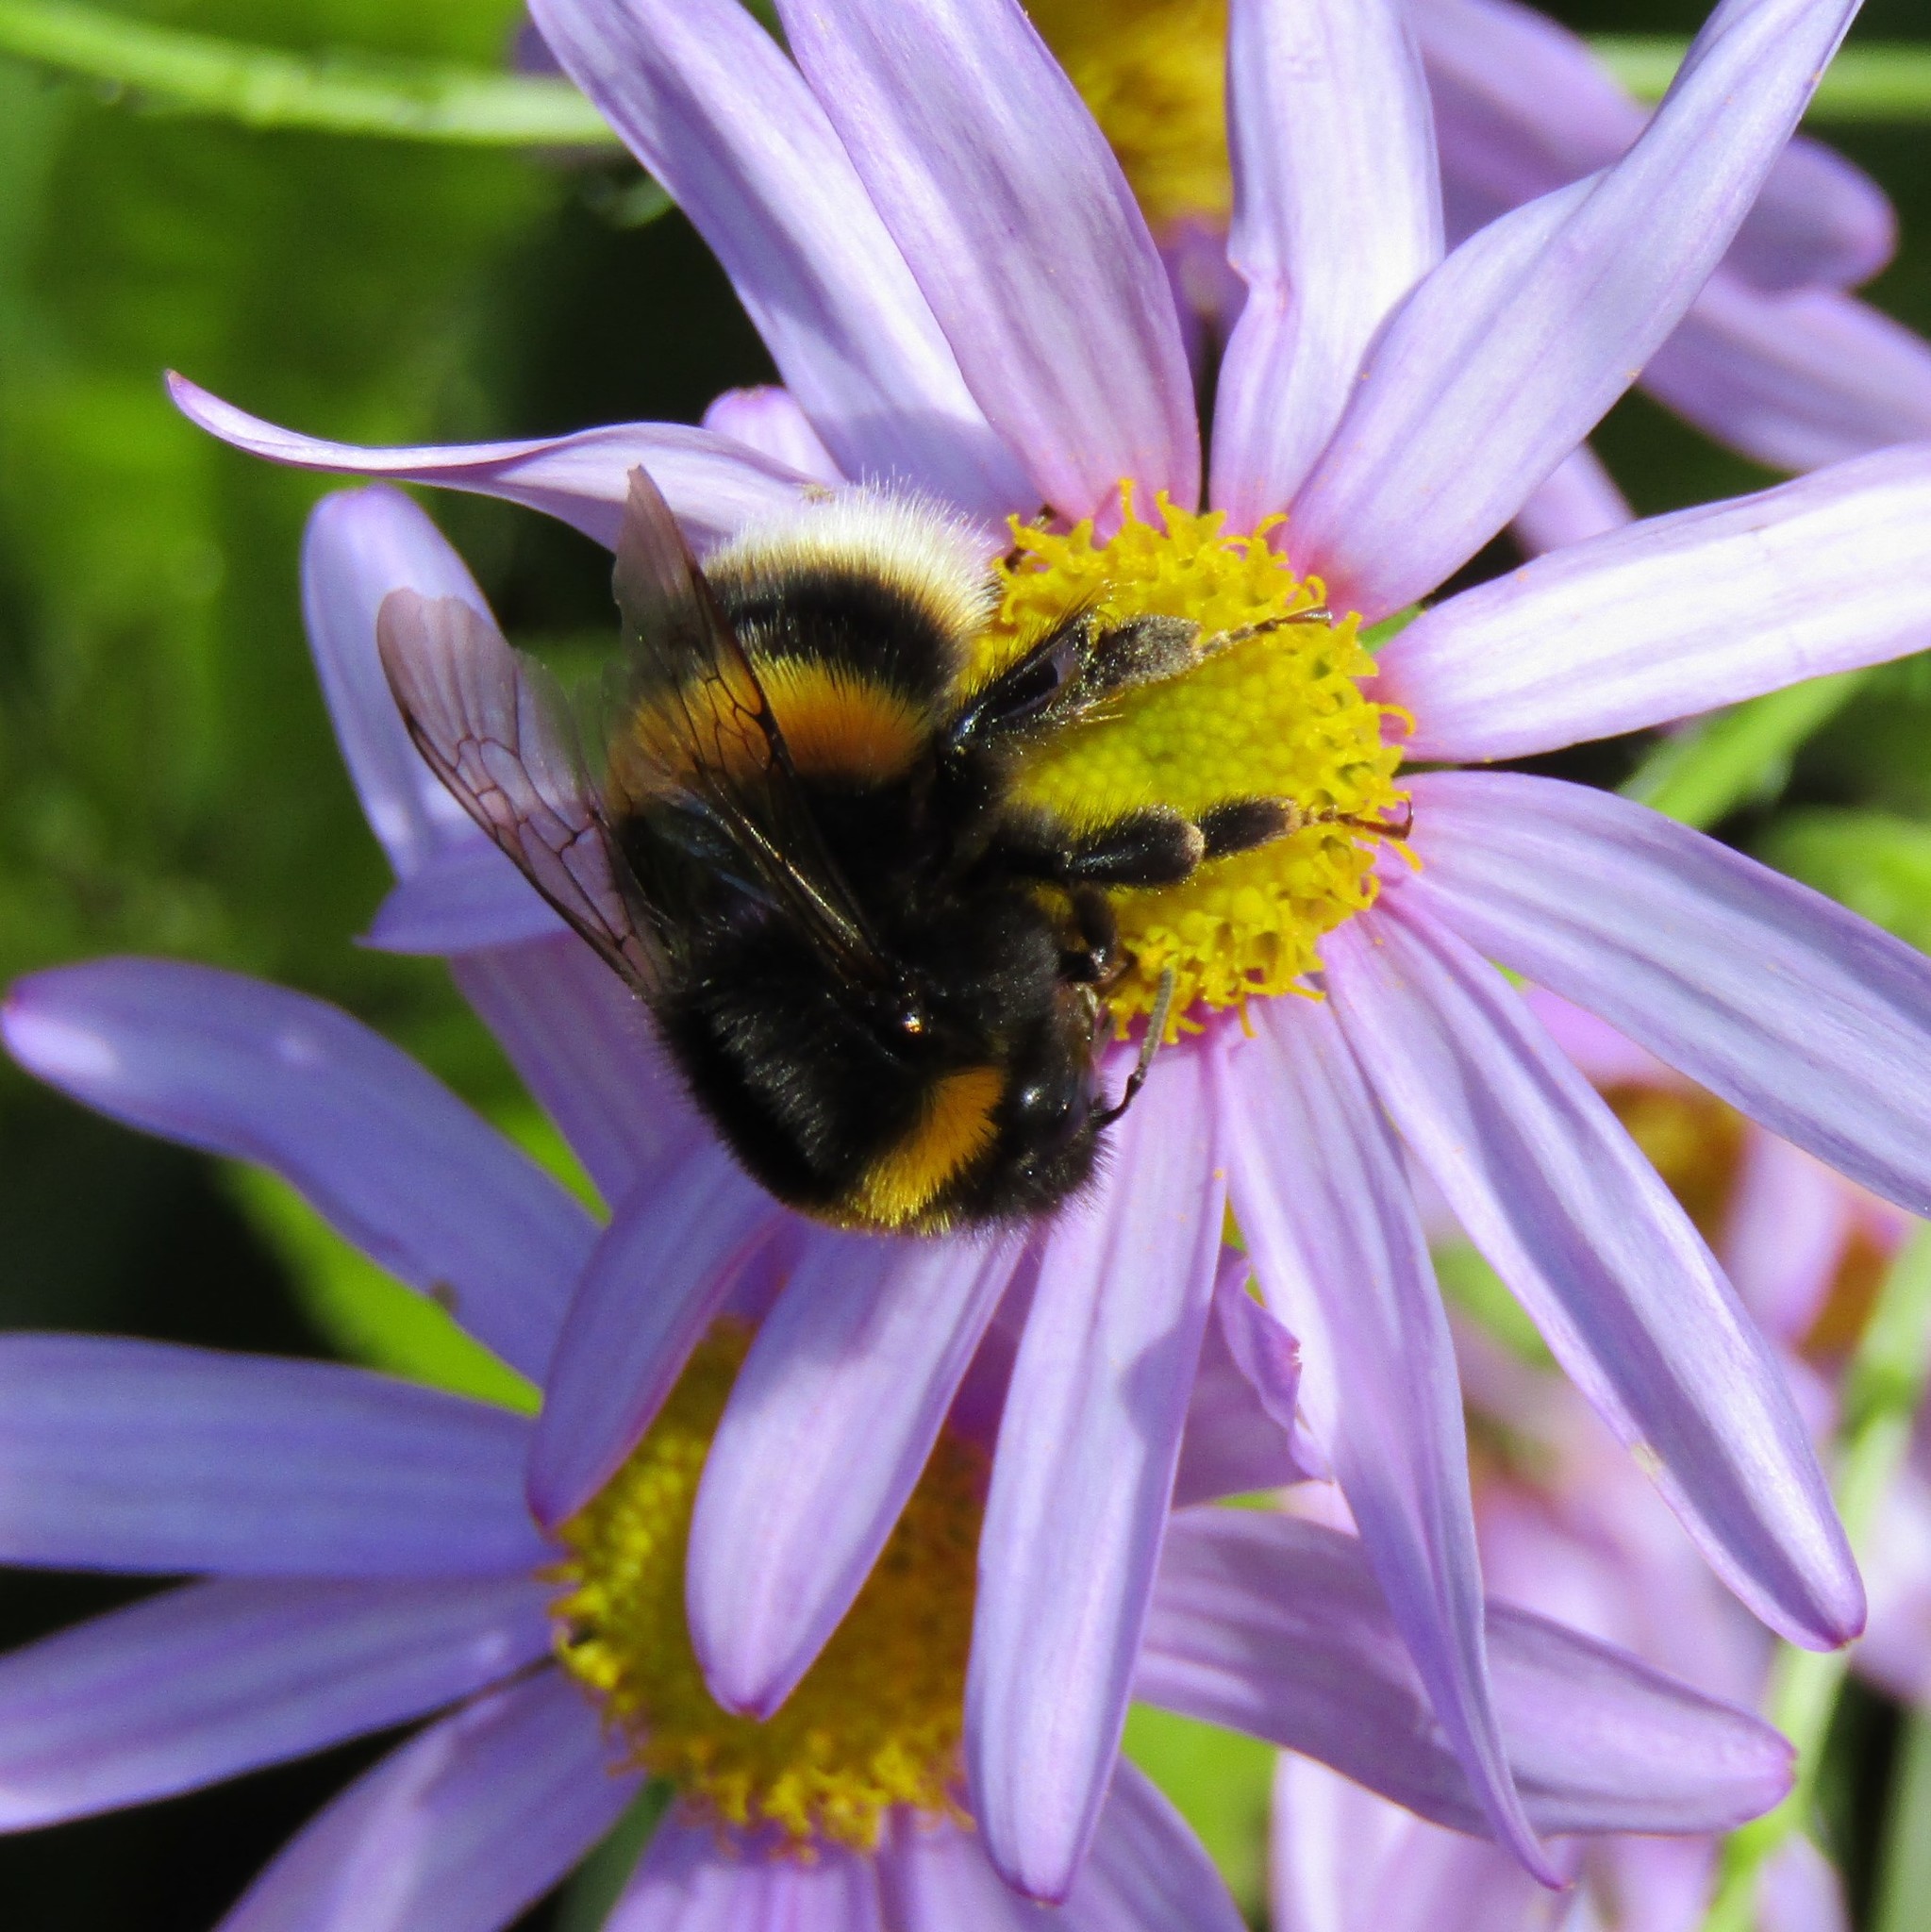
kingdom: Animalia
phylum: Arthropoda
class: Insecta
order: Hymenoptera
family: Apidae
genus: Bombus
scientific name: Bombus terrestris
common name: Buff-tailed bumblebee
